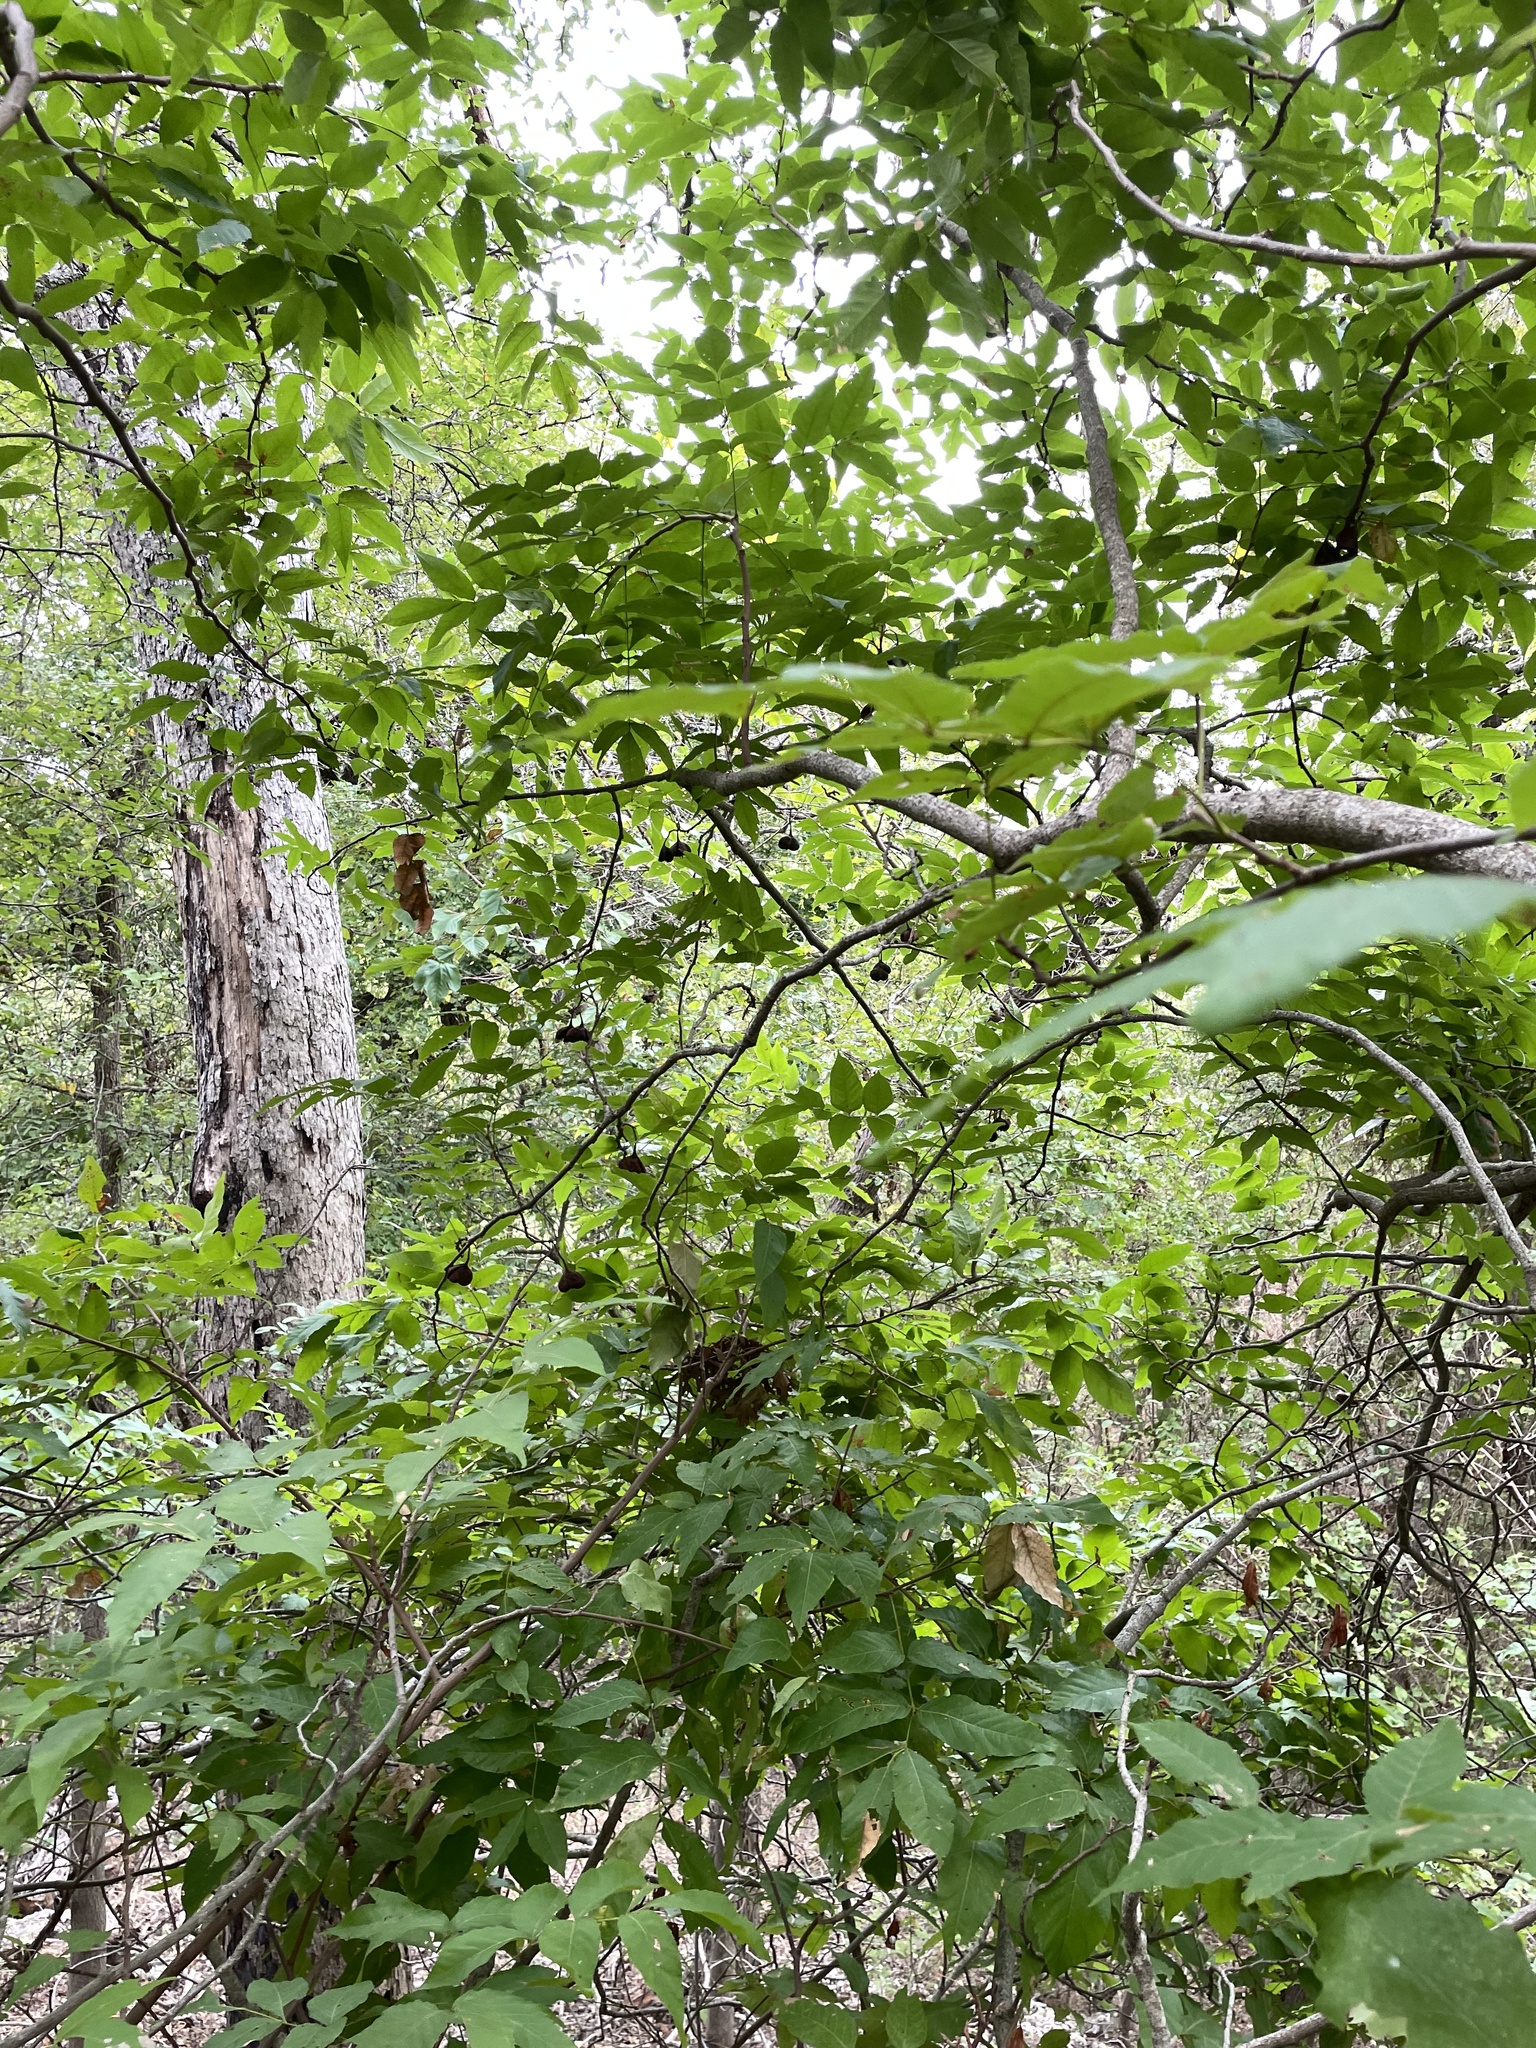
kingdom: Plantae
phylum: Tracheophyta
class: Magnoliopsida
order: Sapindales
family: Sapindaceae
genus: Ungnadia
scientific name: Ungnadia speciosa
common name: Texas-buckeye
